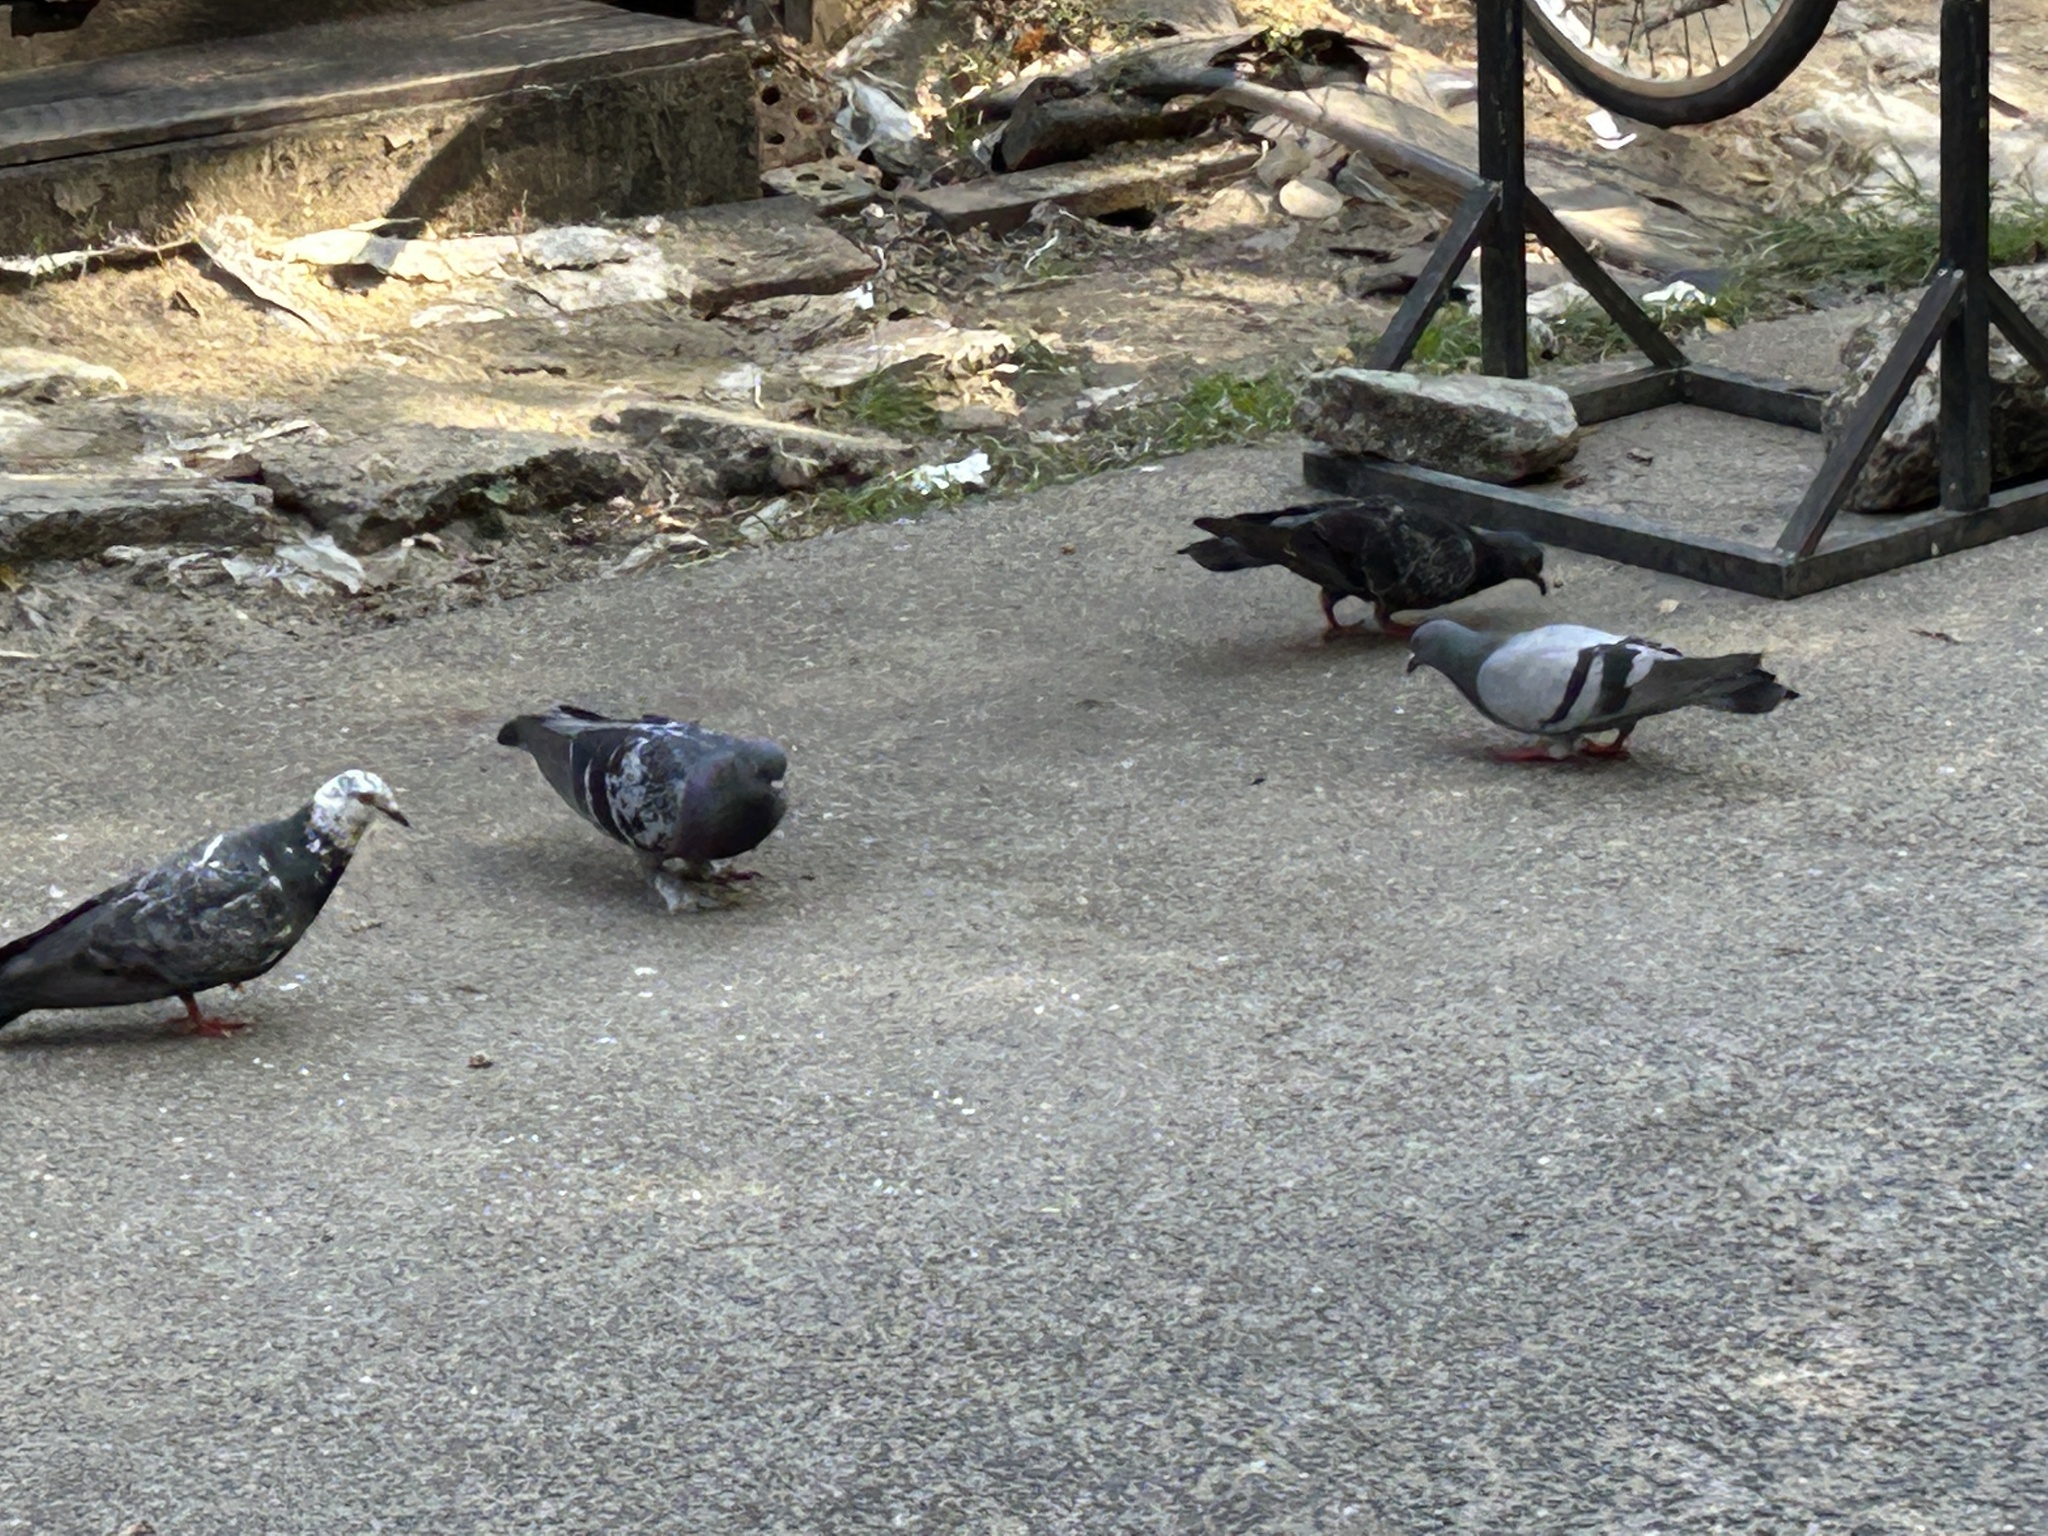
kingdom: Animalia
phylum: Chordata
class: Aves
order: Columbiformes
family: Columbidae
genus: Columba
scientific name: Columba livia
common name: Rock pigeon
